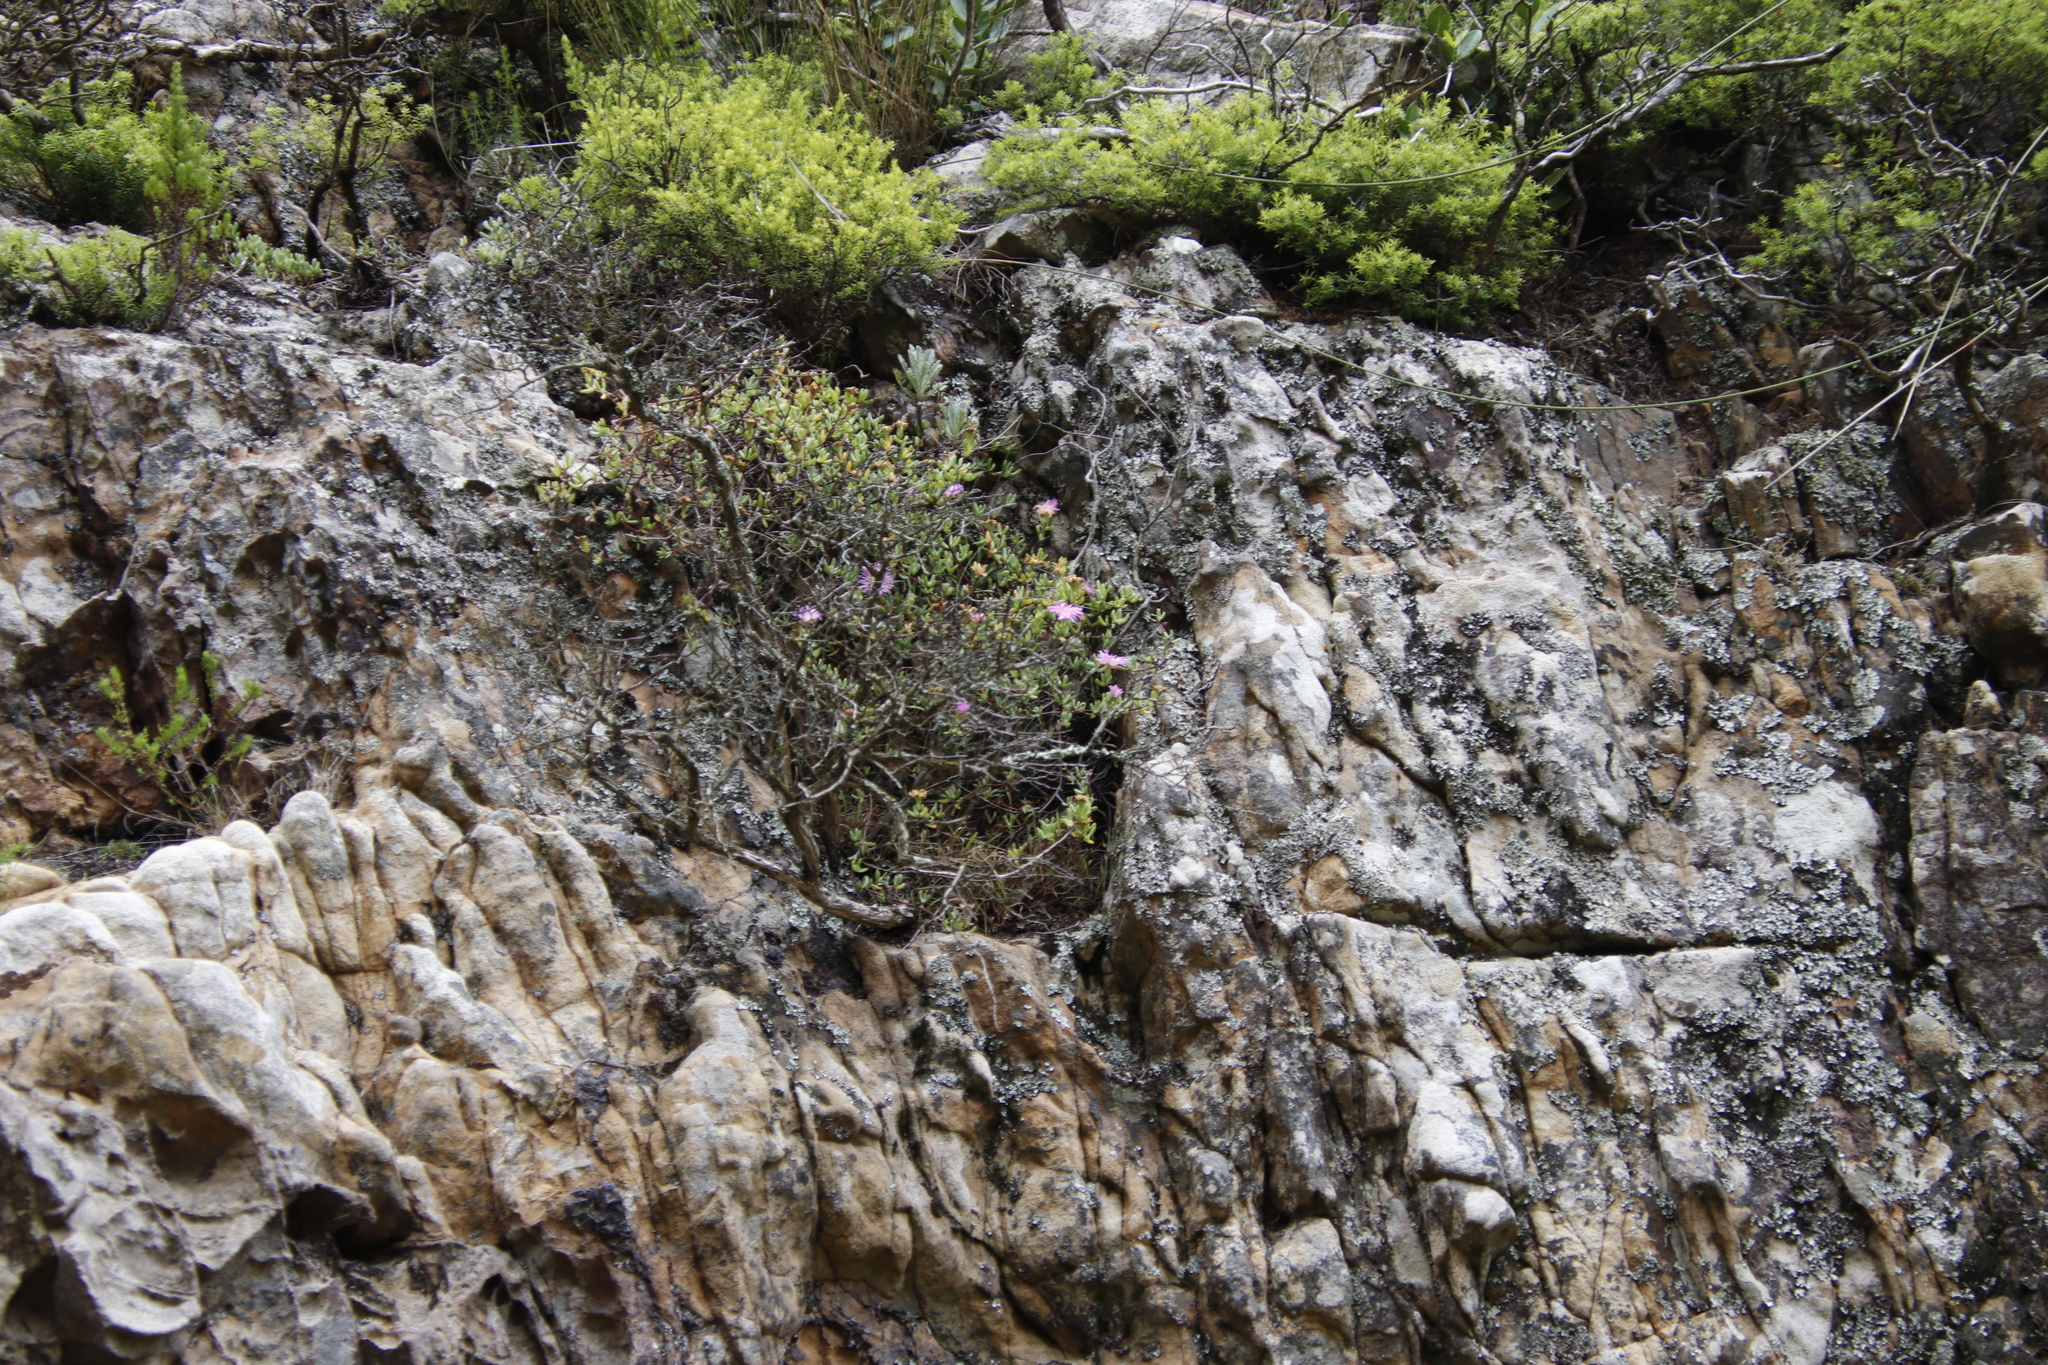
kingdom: Plantae
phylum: Tracheophyta
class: Magnoliopsida
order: Caryophyllales
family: Aizoaceae
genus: Oscularia
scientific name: Oscularia falciformis
